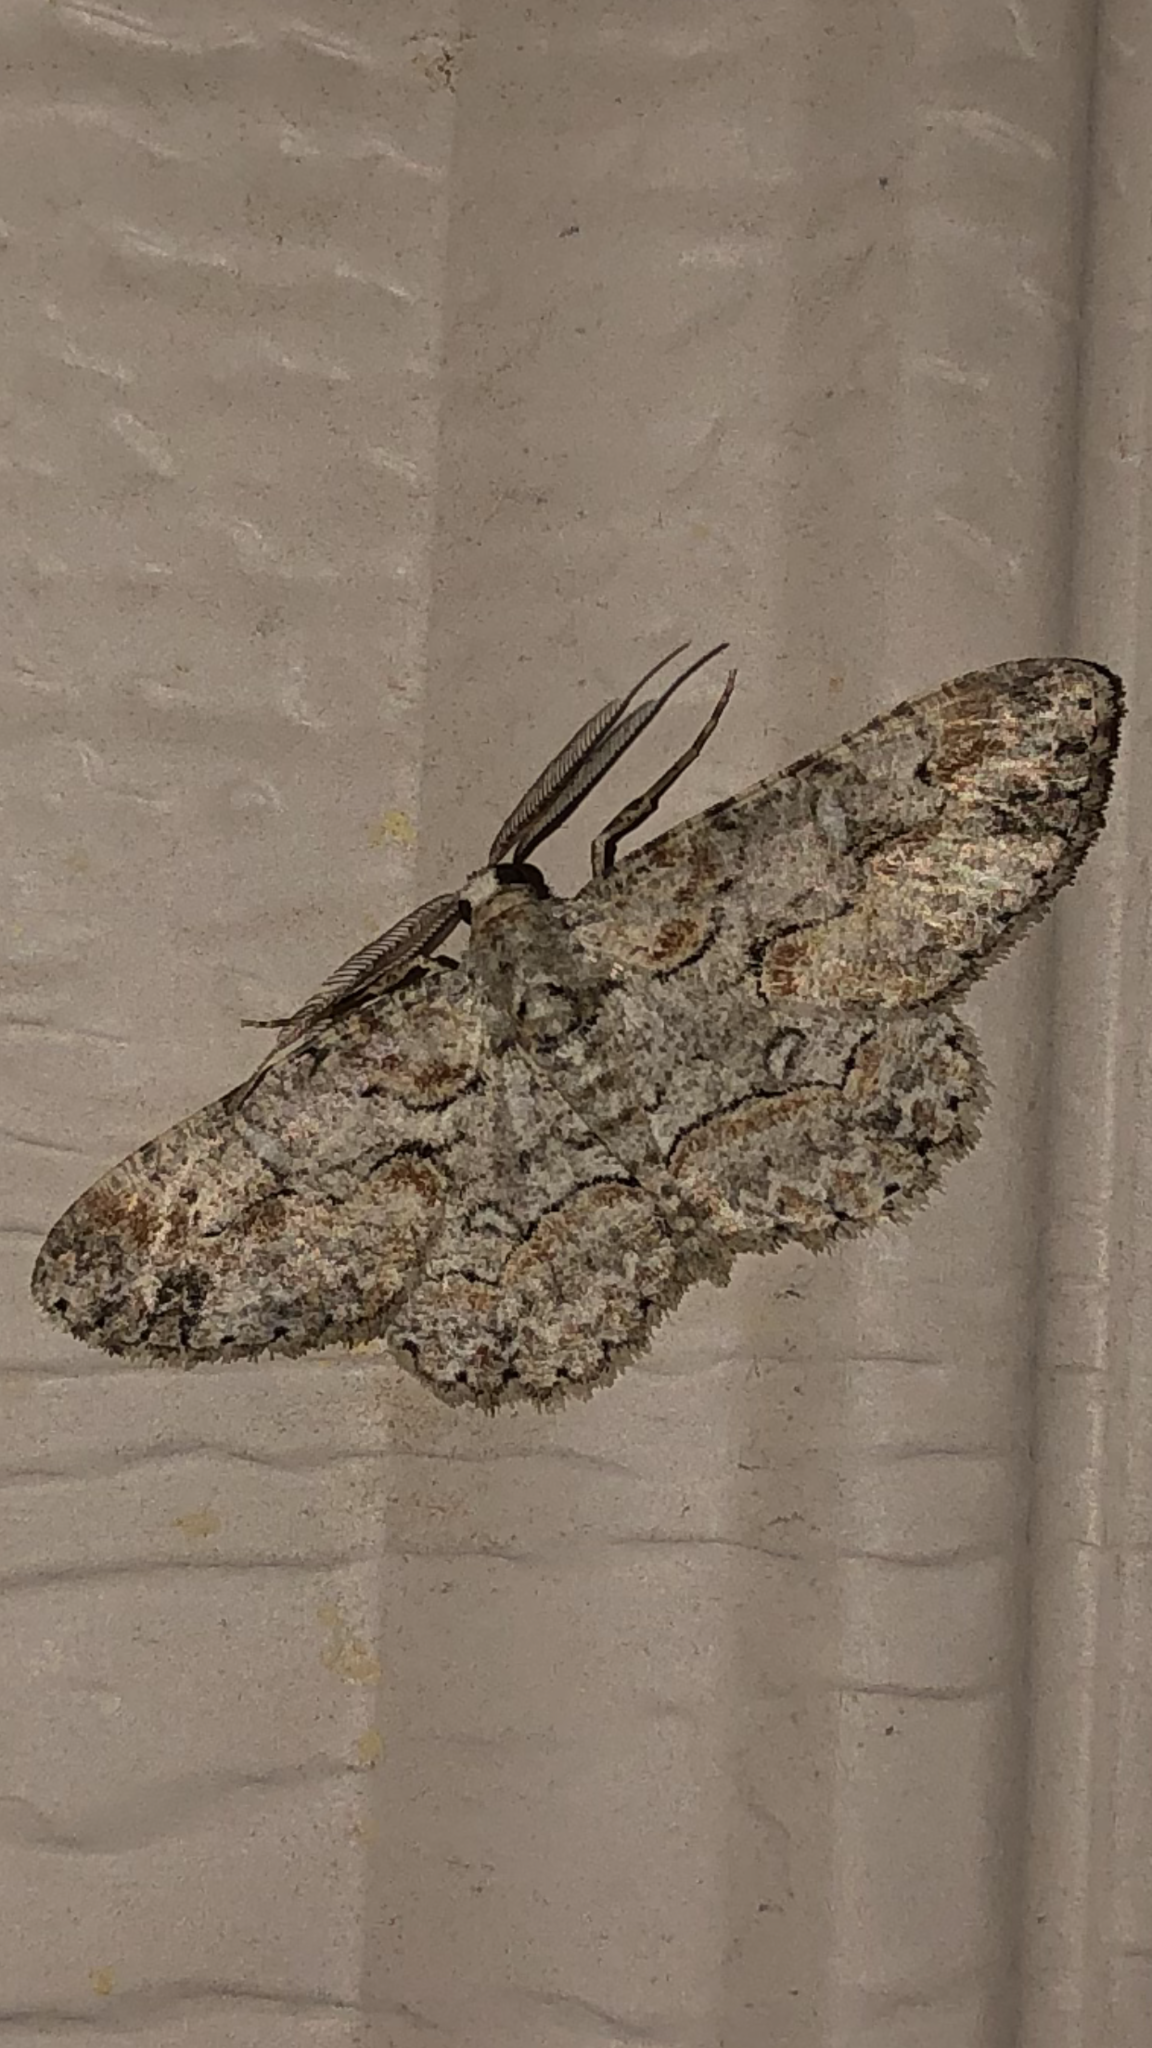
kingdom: Animalia
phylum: Arthropoda
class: Insecta
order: Lepidoptera
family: Geometridae
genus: Iridopsis
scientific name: Iridopsis defectaria
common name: Brown-shaded gray
